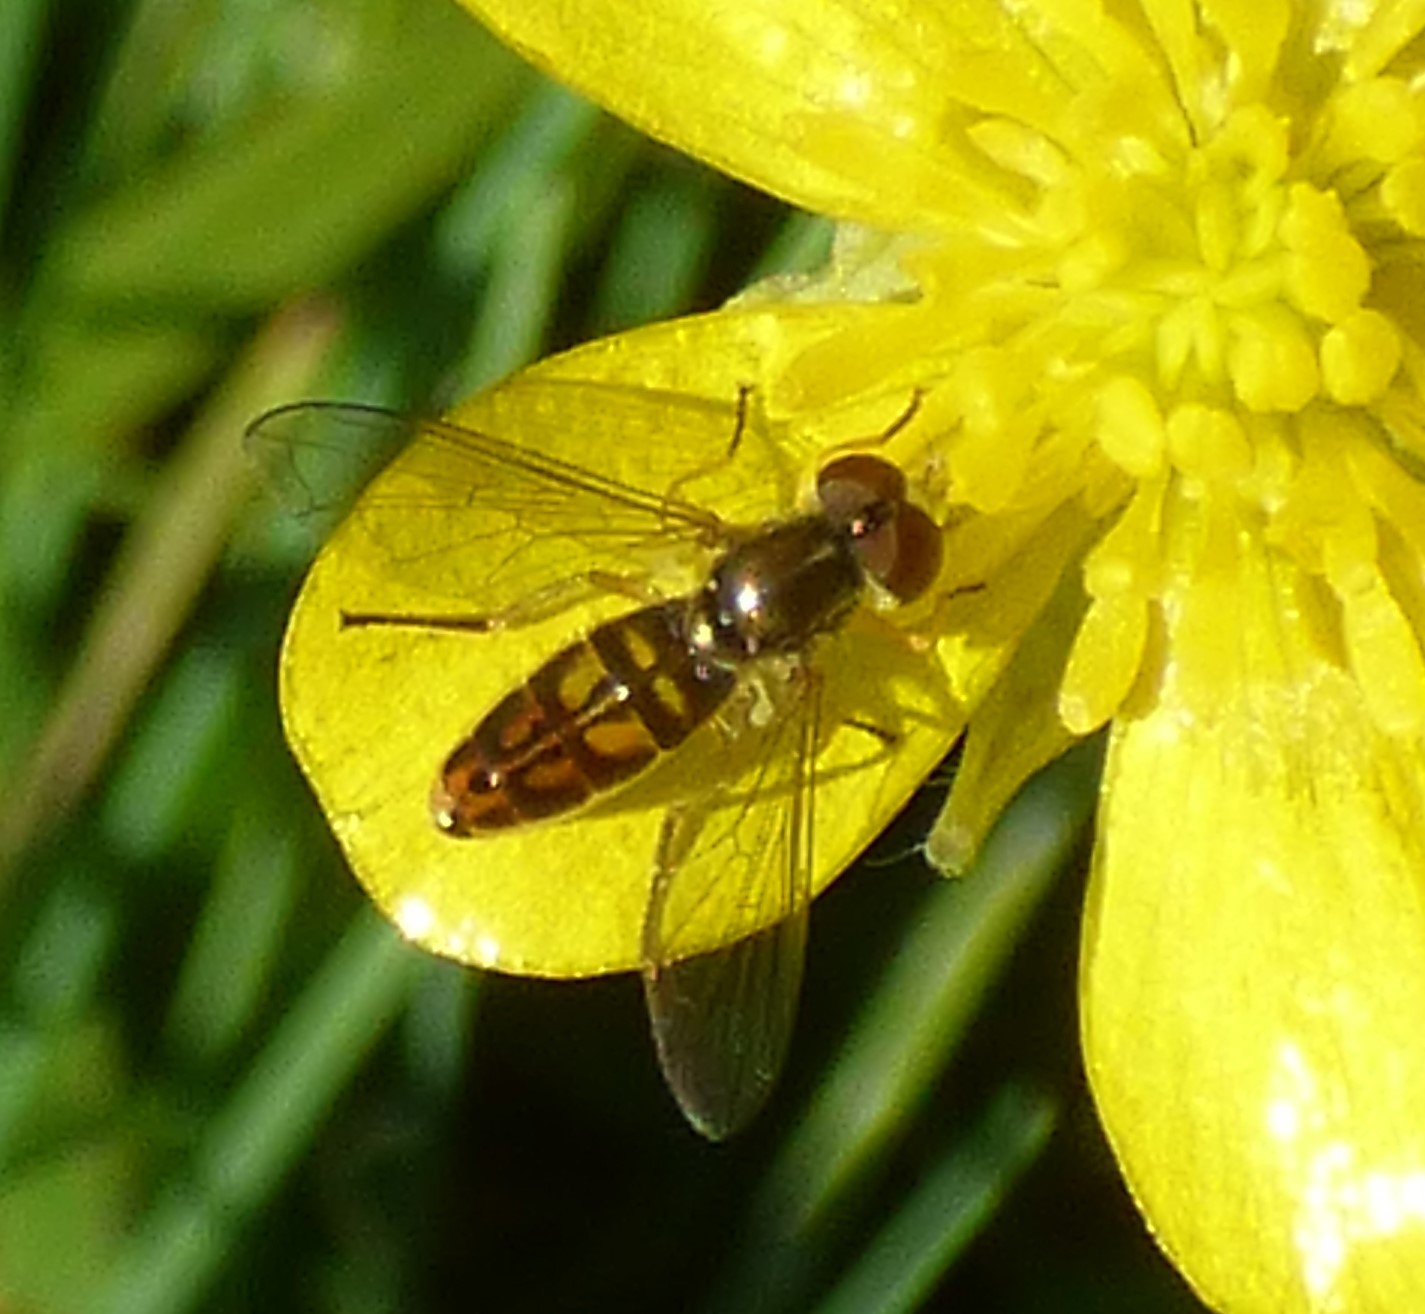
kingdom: Animalia
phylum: Arthropoda
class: Insecta
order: Diptera
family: Syrphidae
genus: Toxomerus
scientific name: Toxomerus marginatus
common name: Syrphid fly
